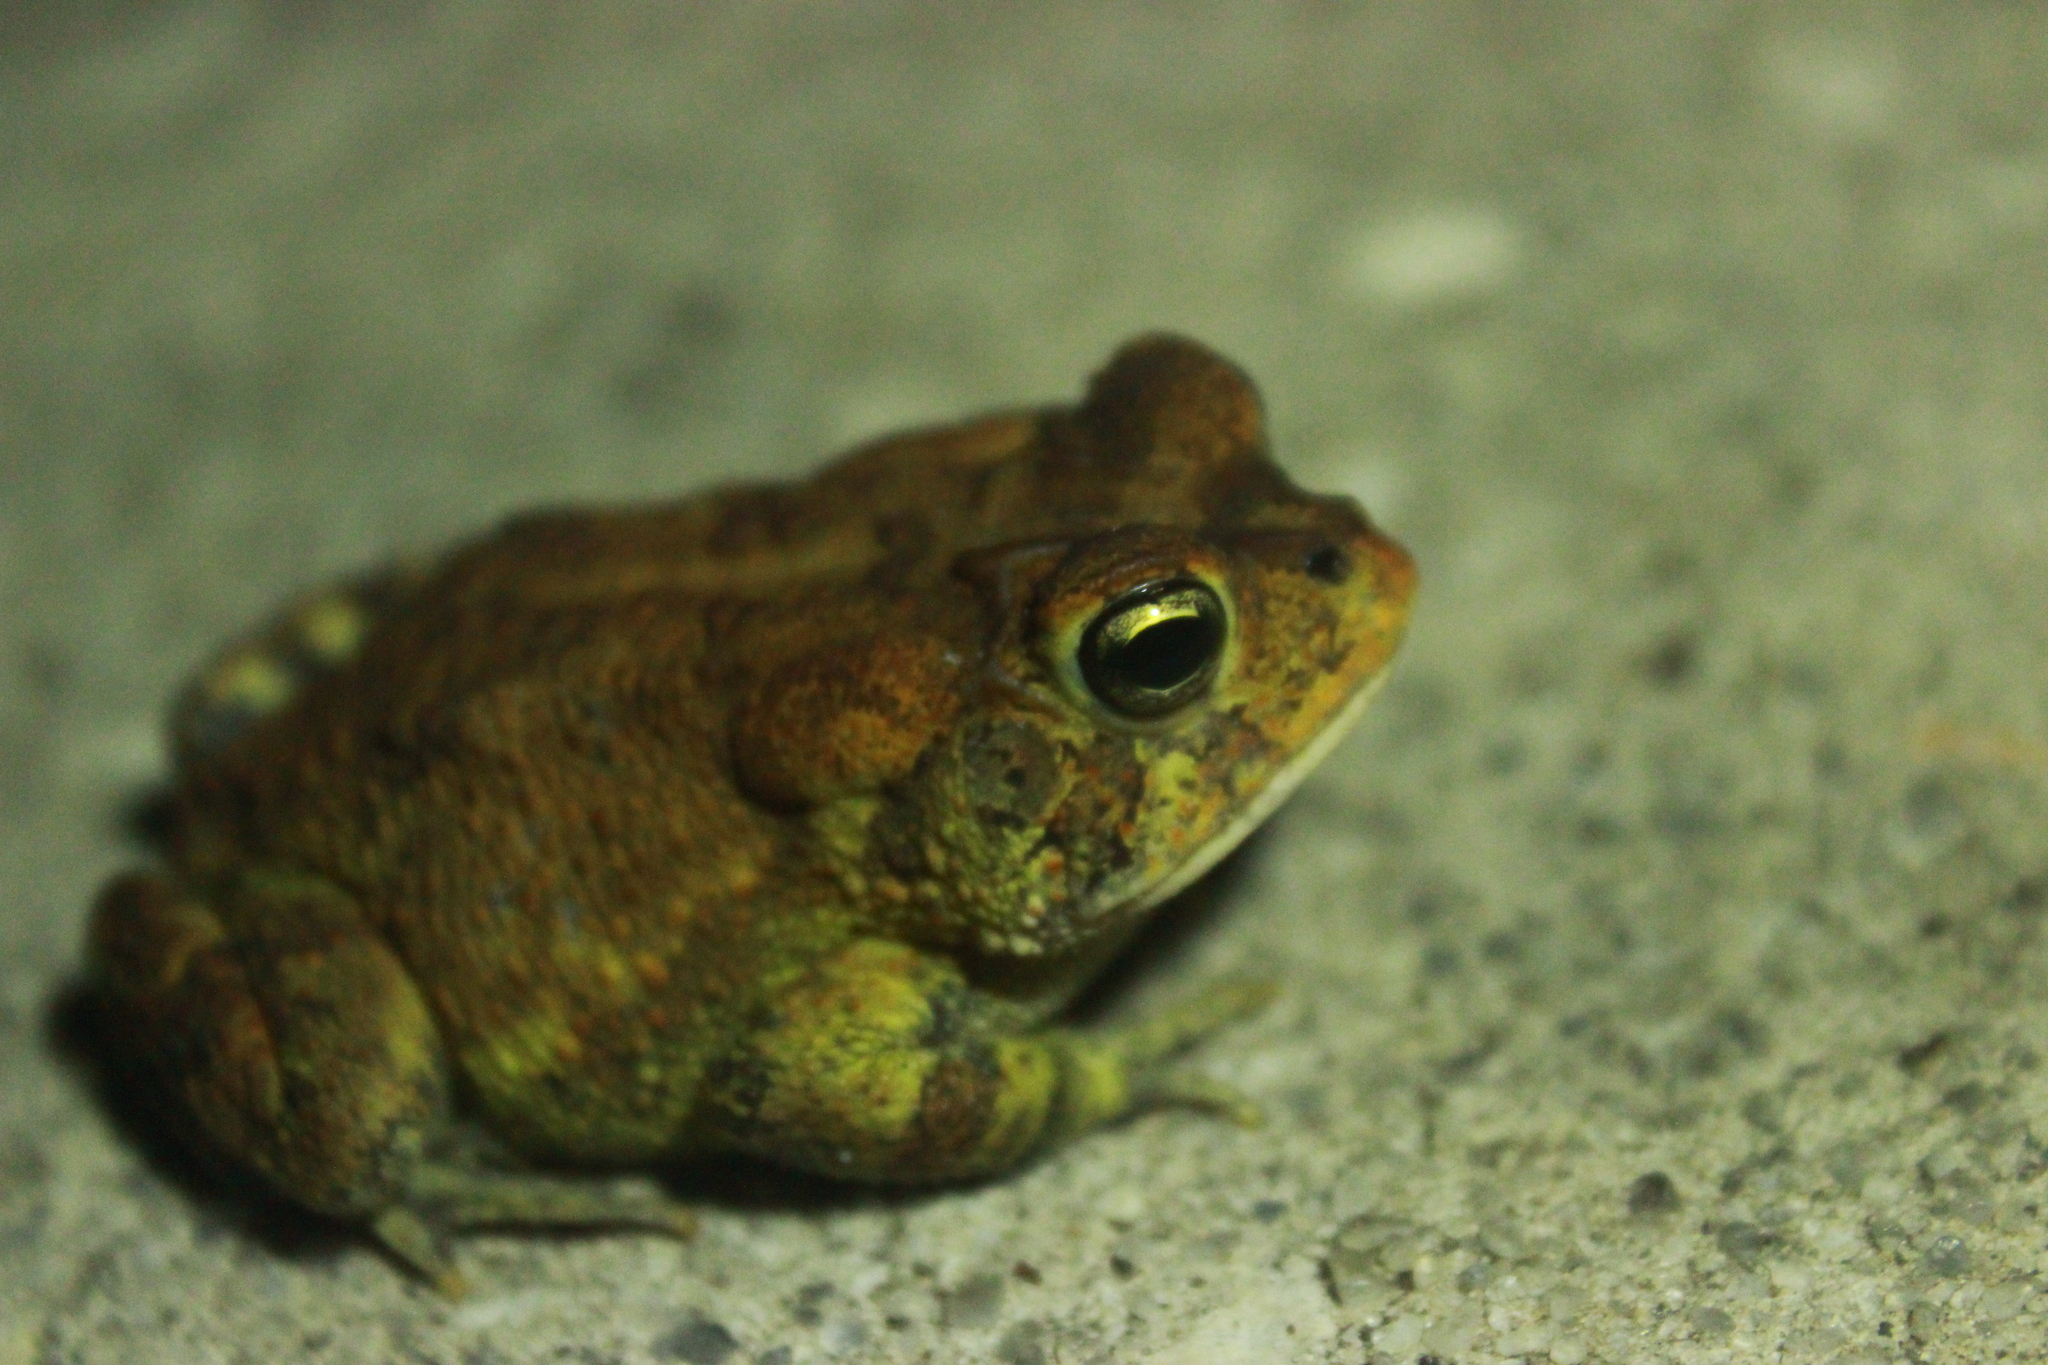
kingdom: Animalia
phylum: Chordata
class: Amphibia
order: Anura
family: Bufonidae
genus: Anaxyrus
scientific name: Anaxyrus terrestris
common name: Southern toad
